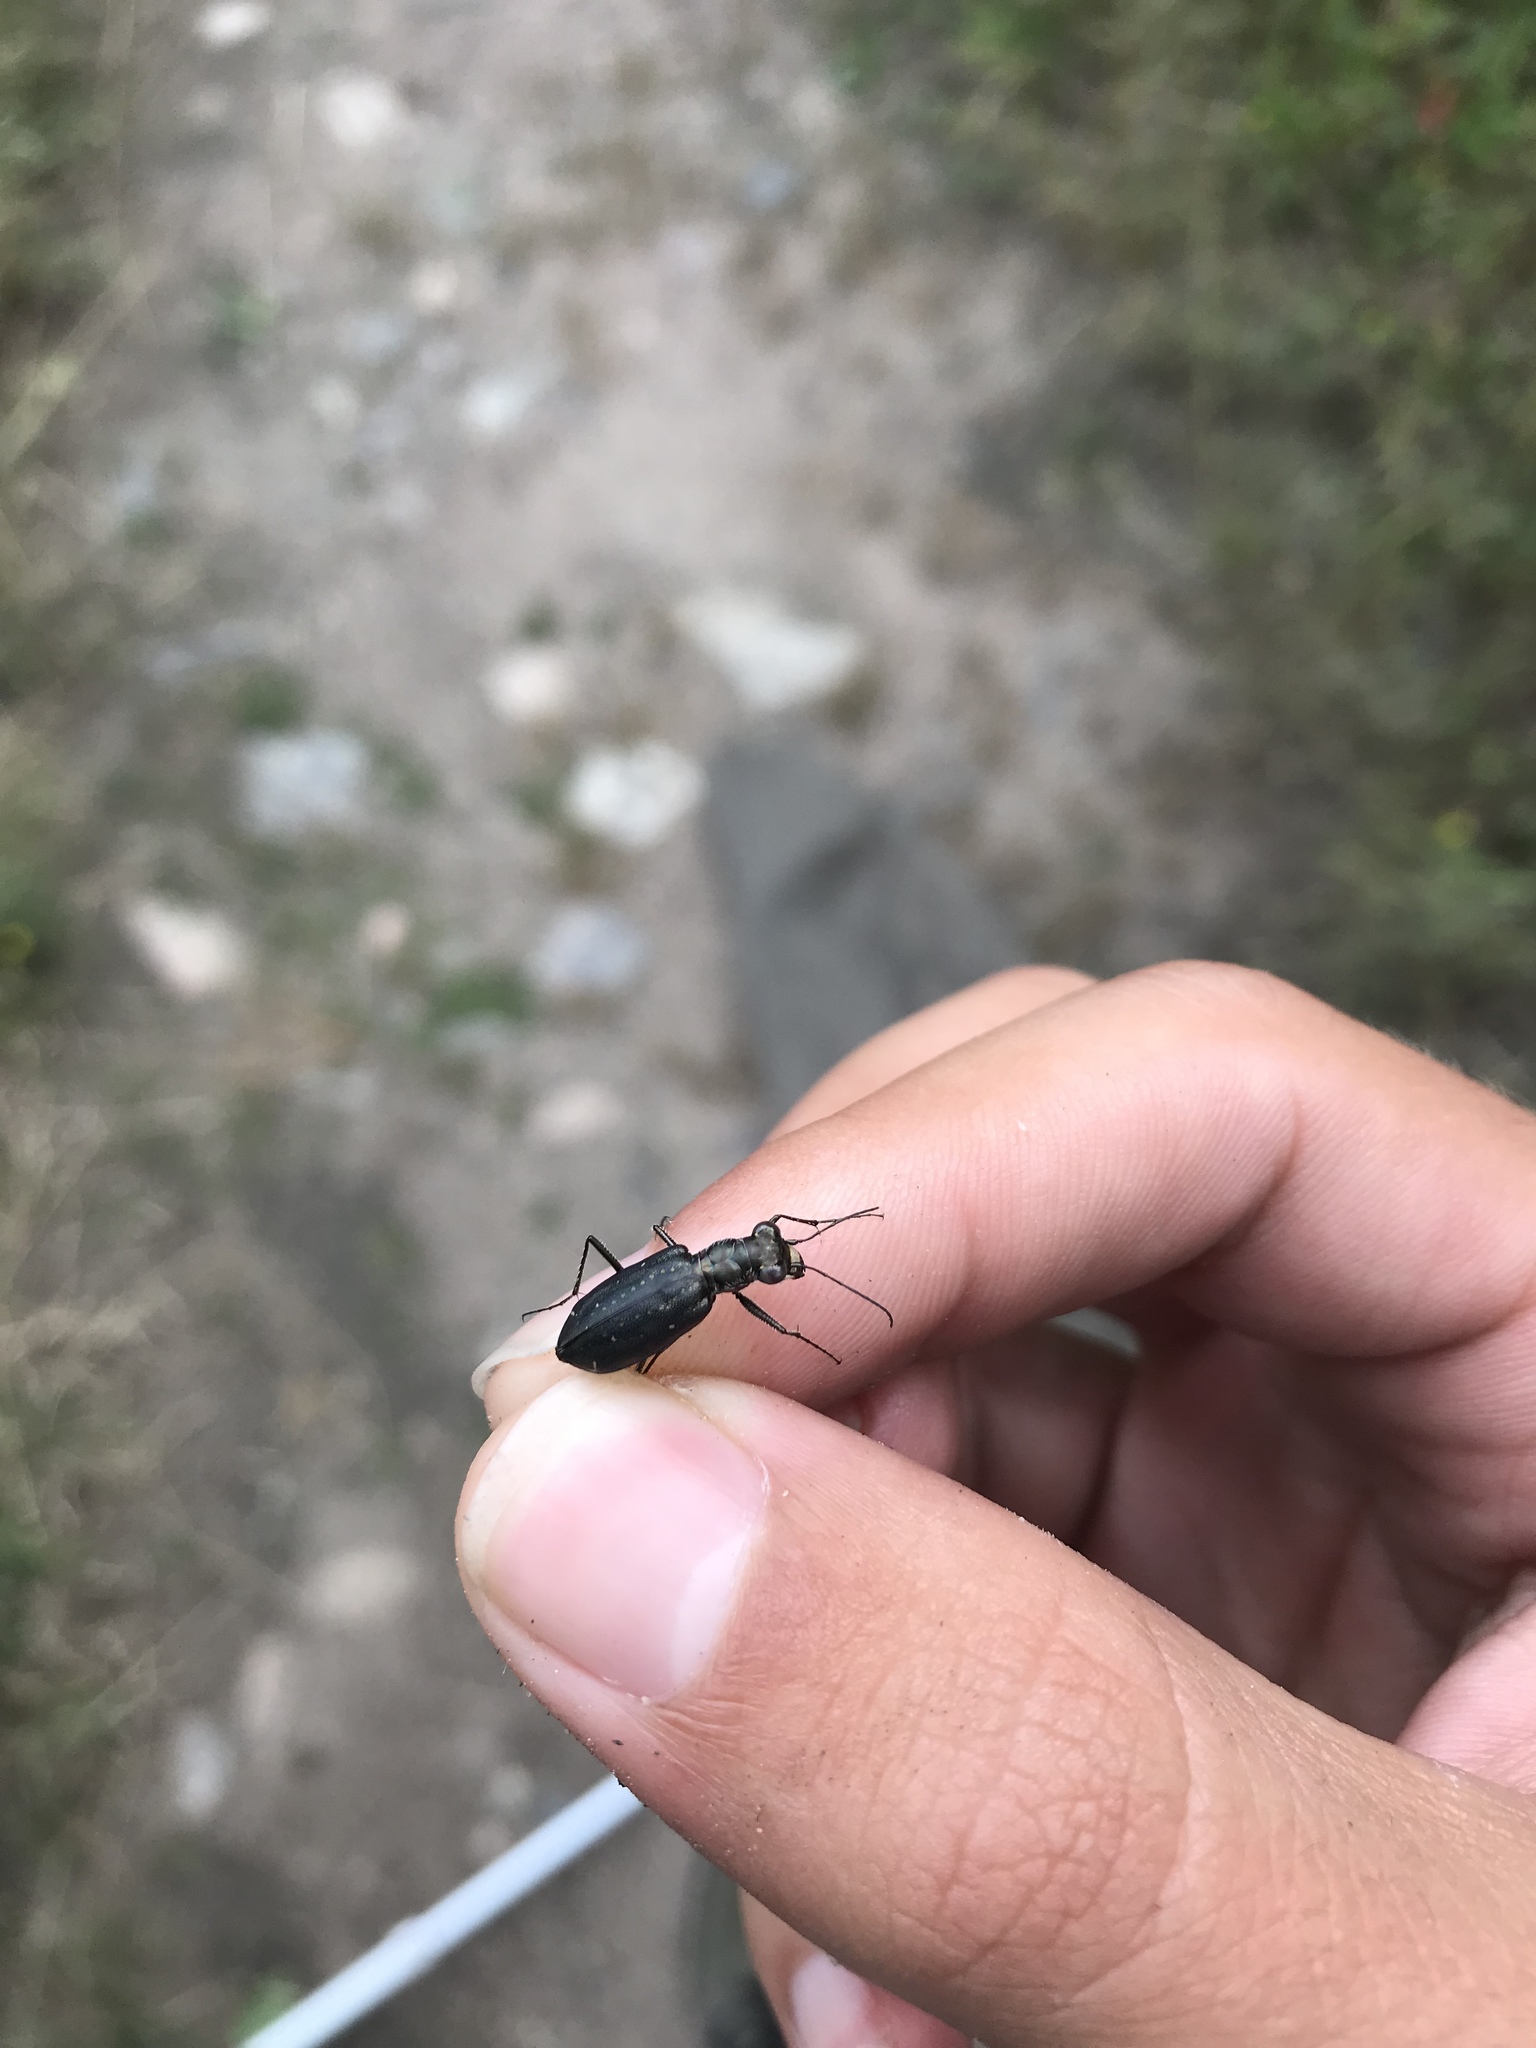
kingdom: Animalia
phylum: Arthropoda
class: Insecta
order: Coleoptera
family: Carabidae
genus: Cicindela
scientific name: Cicindela punctulata
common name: Punctured tiger beetle
